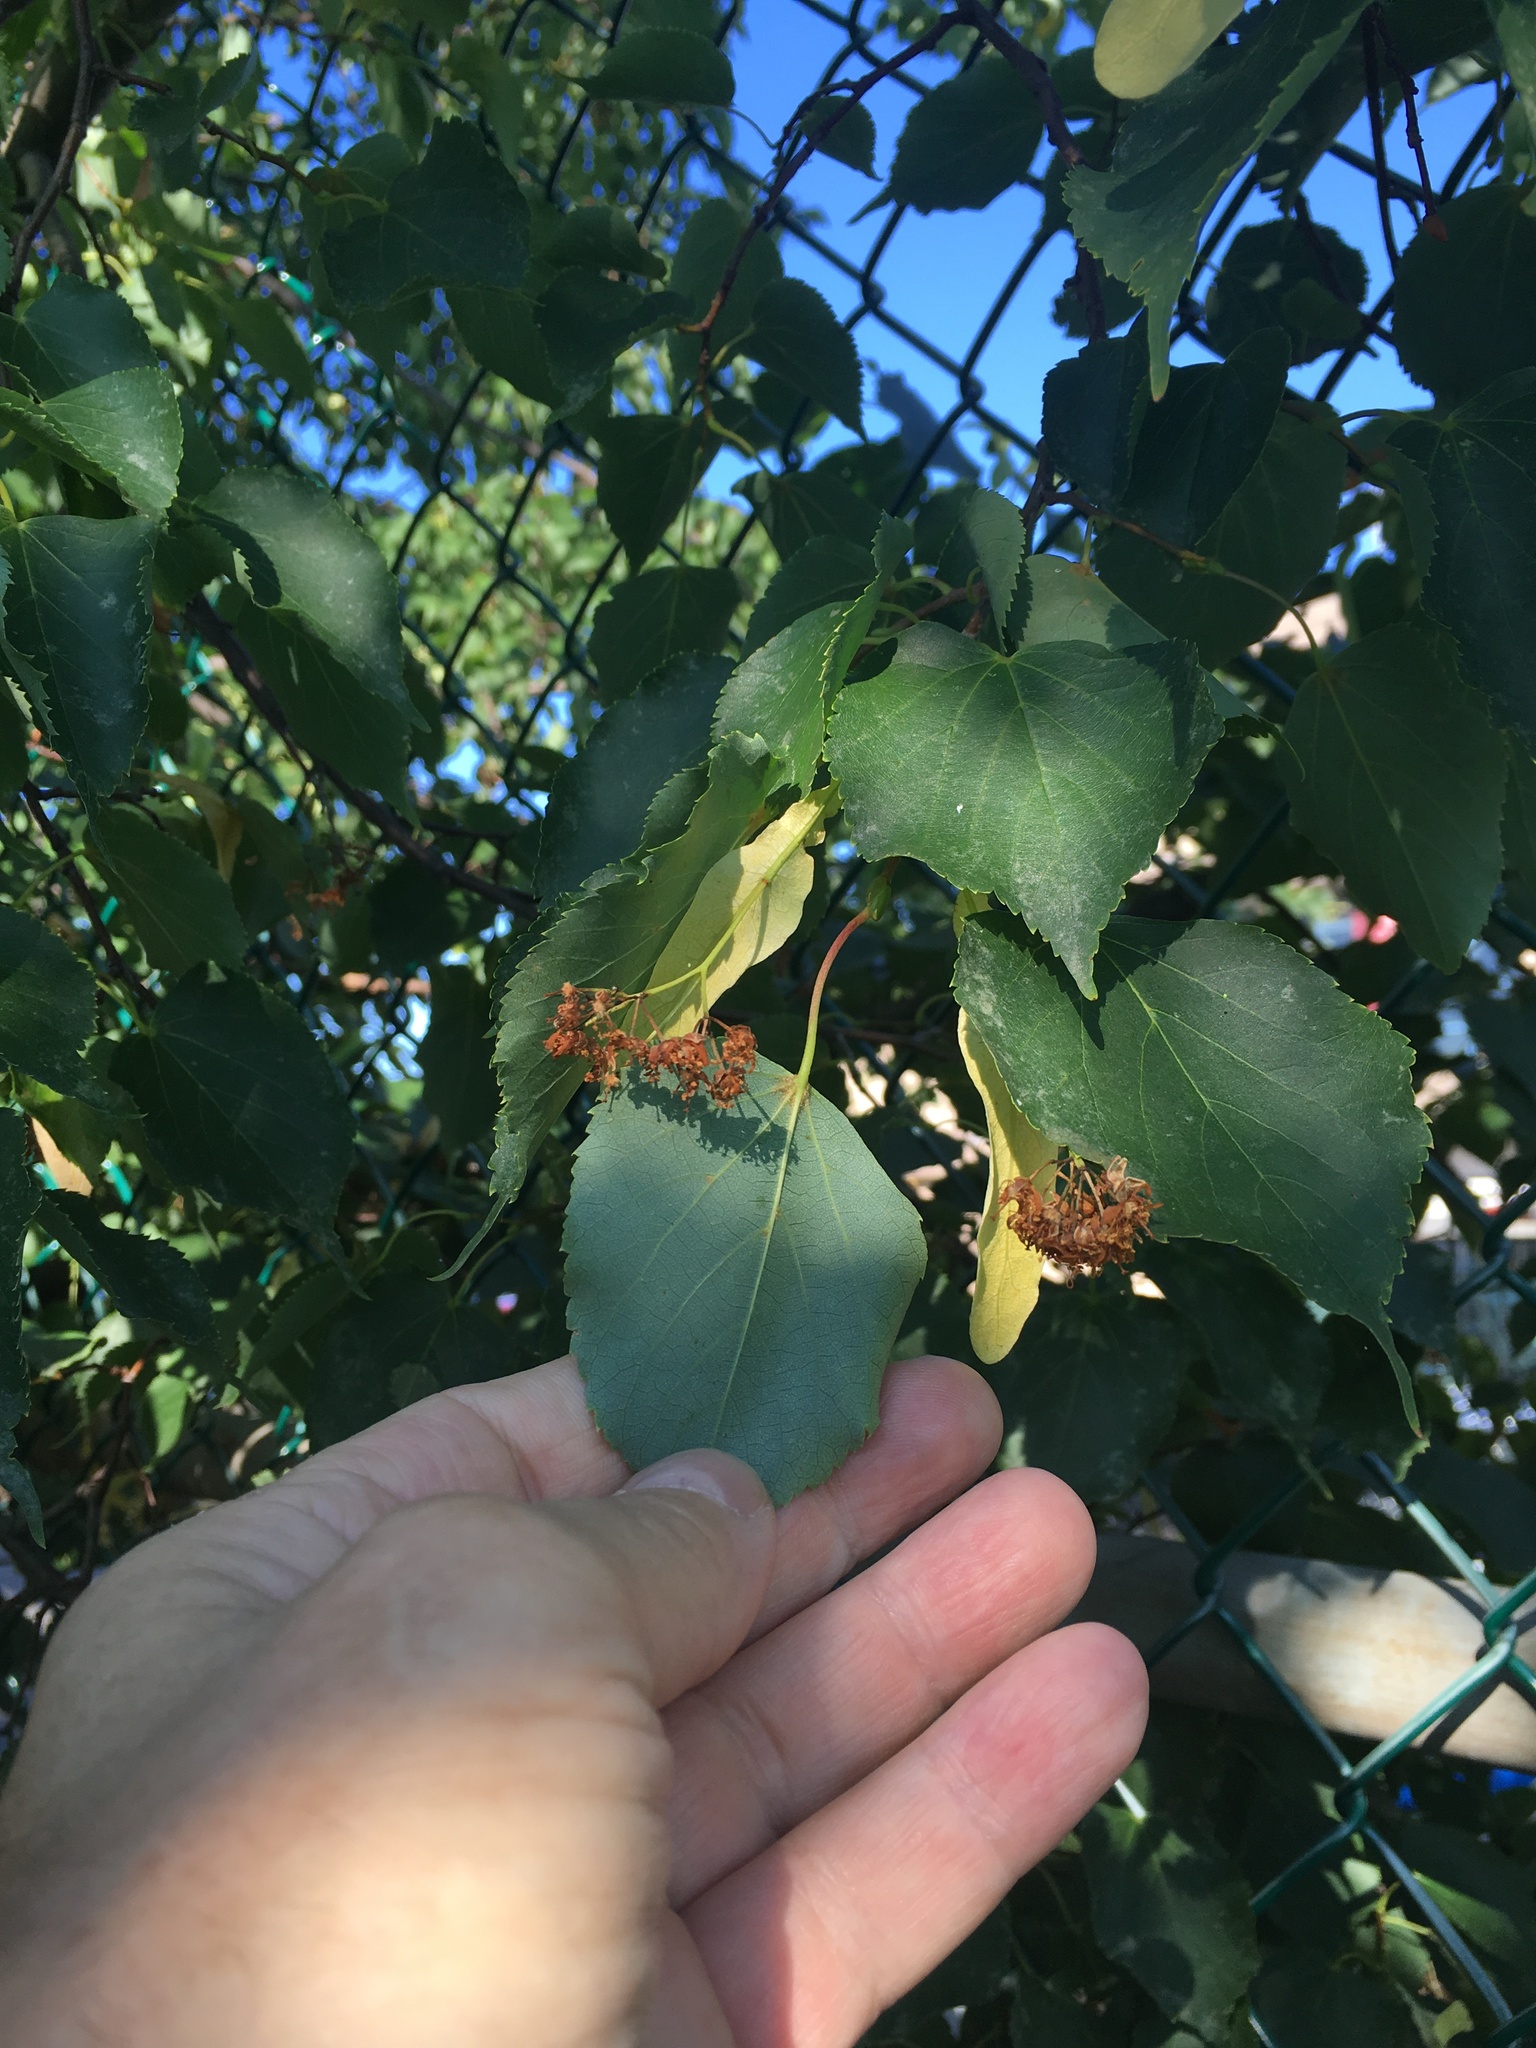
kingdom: Plantae
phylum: Tracheophyta
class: Magnoliopsida
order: Malvales
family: Malvaceae
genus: Tilia
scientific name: Tilia cordata
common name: Small-leaved lime
